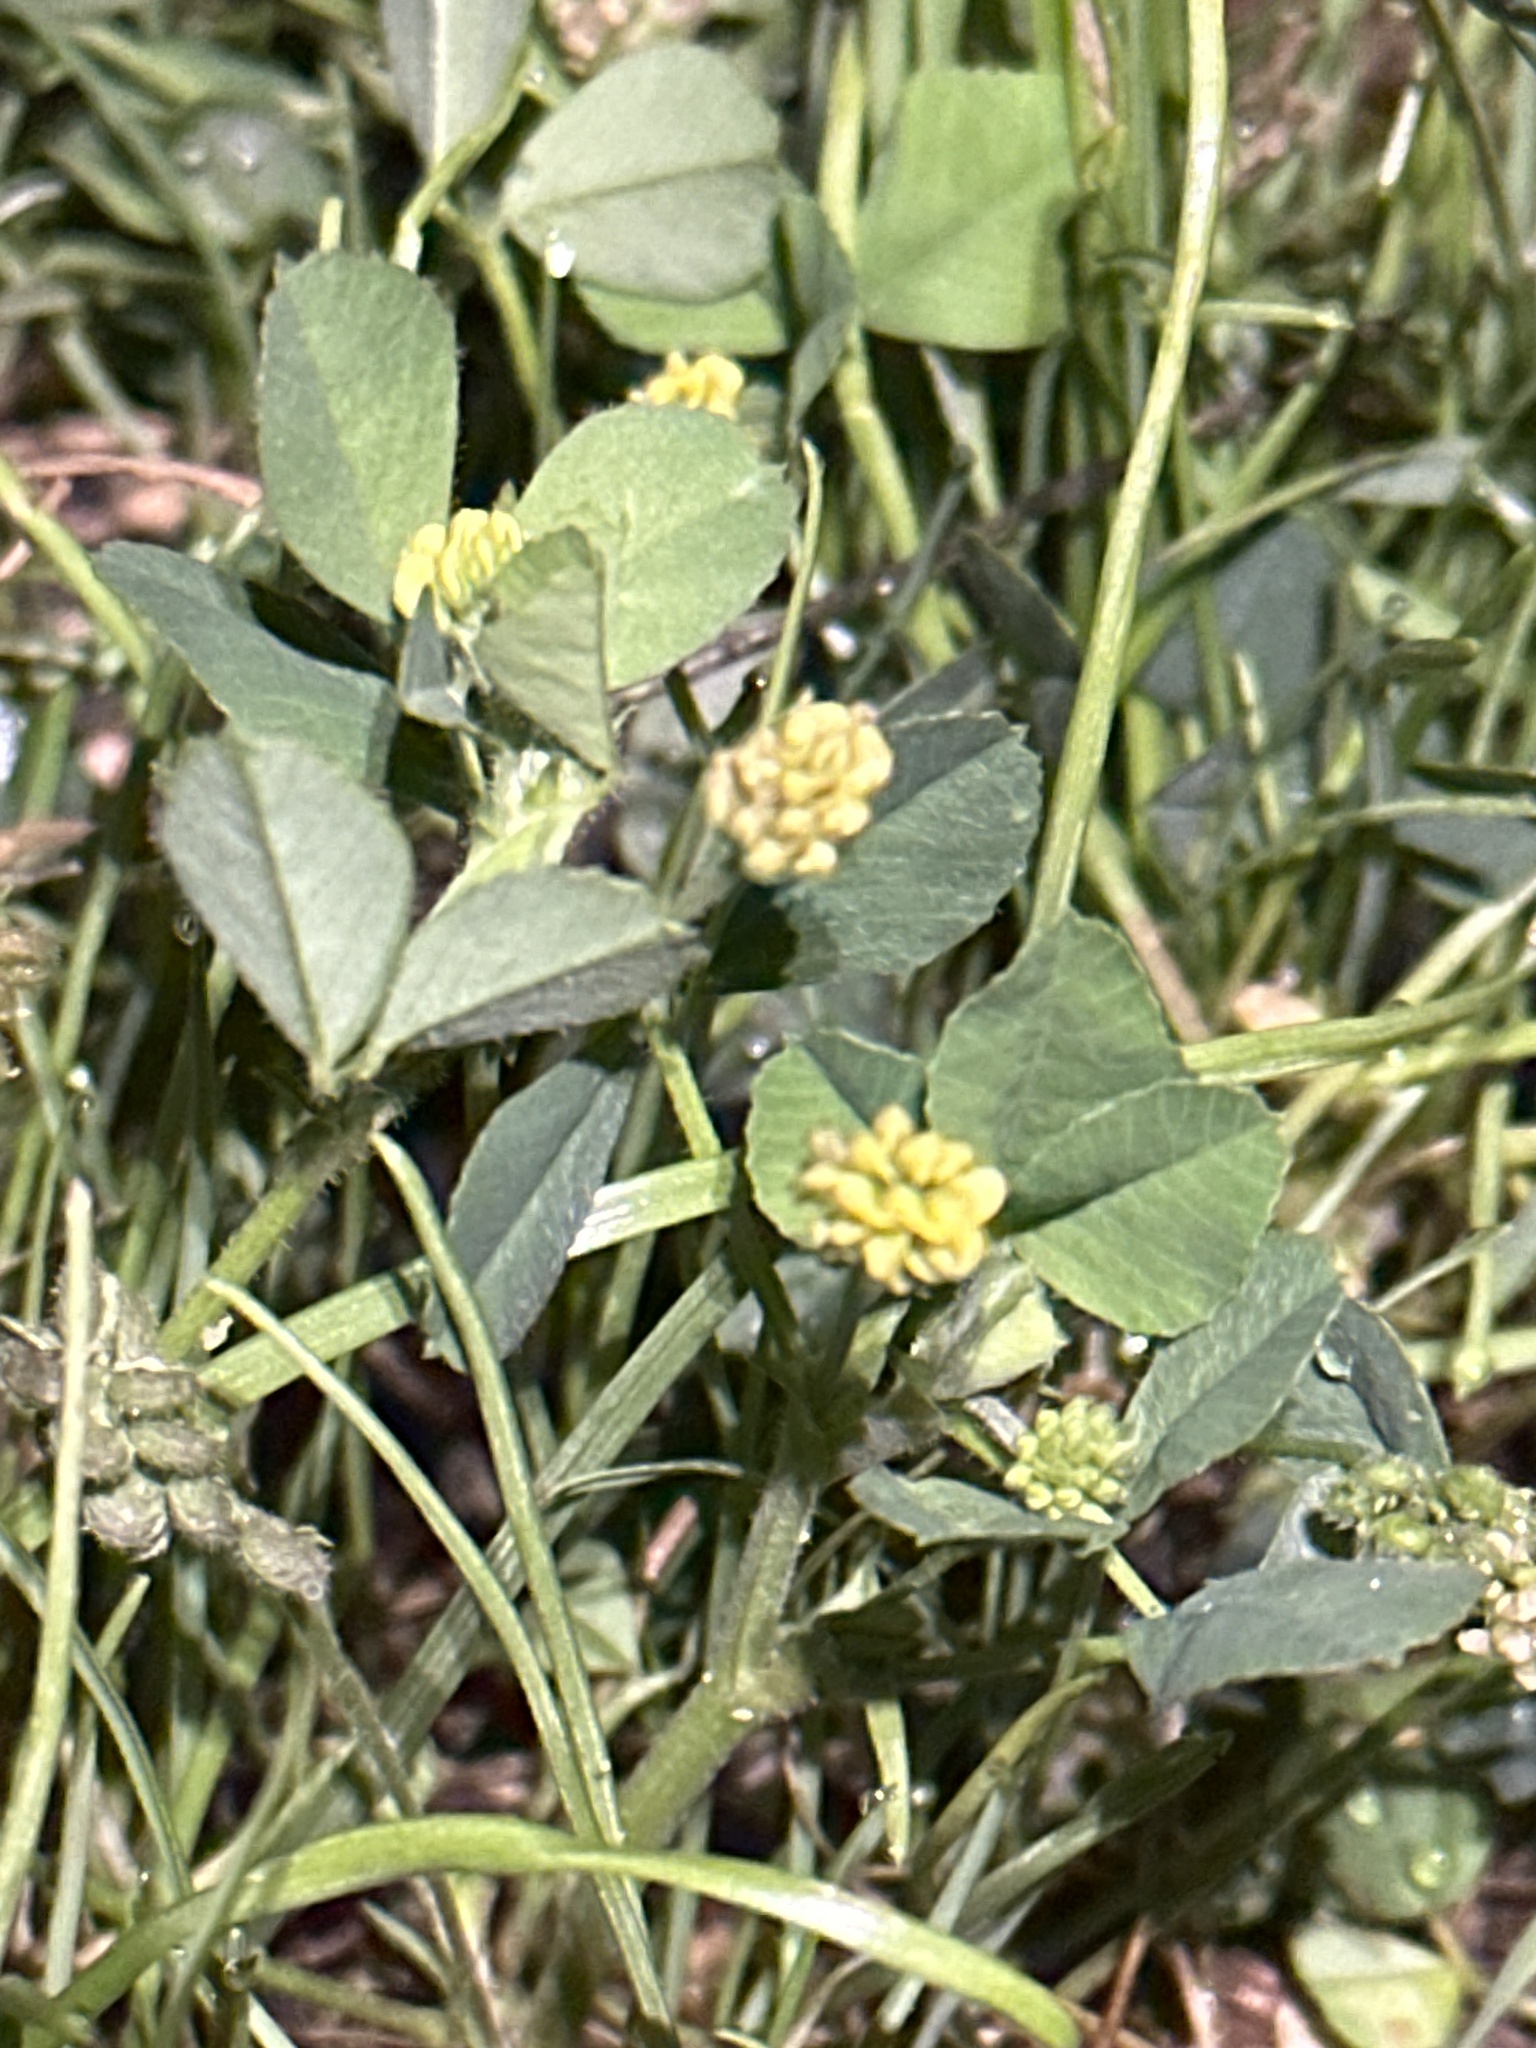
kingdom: Plantae
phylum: Tracheophyta
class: Magnoliopsida
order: Fabales
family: Fabaceae
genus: Medicago
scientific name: Medicago lupulina
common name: Black medick
